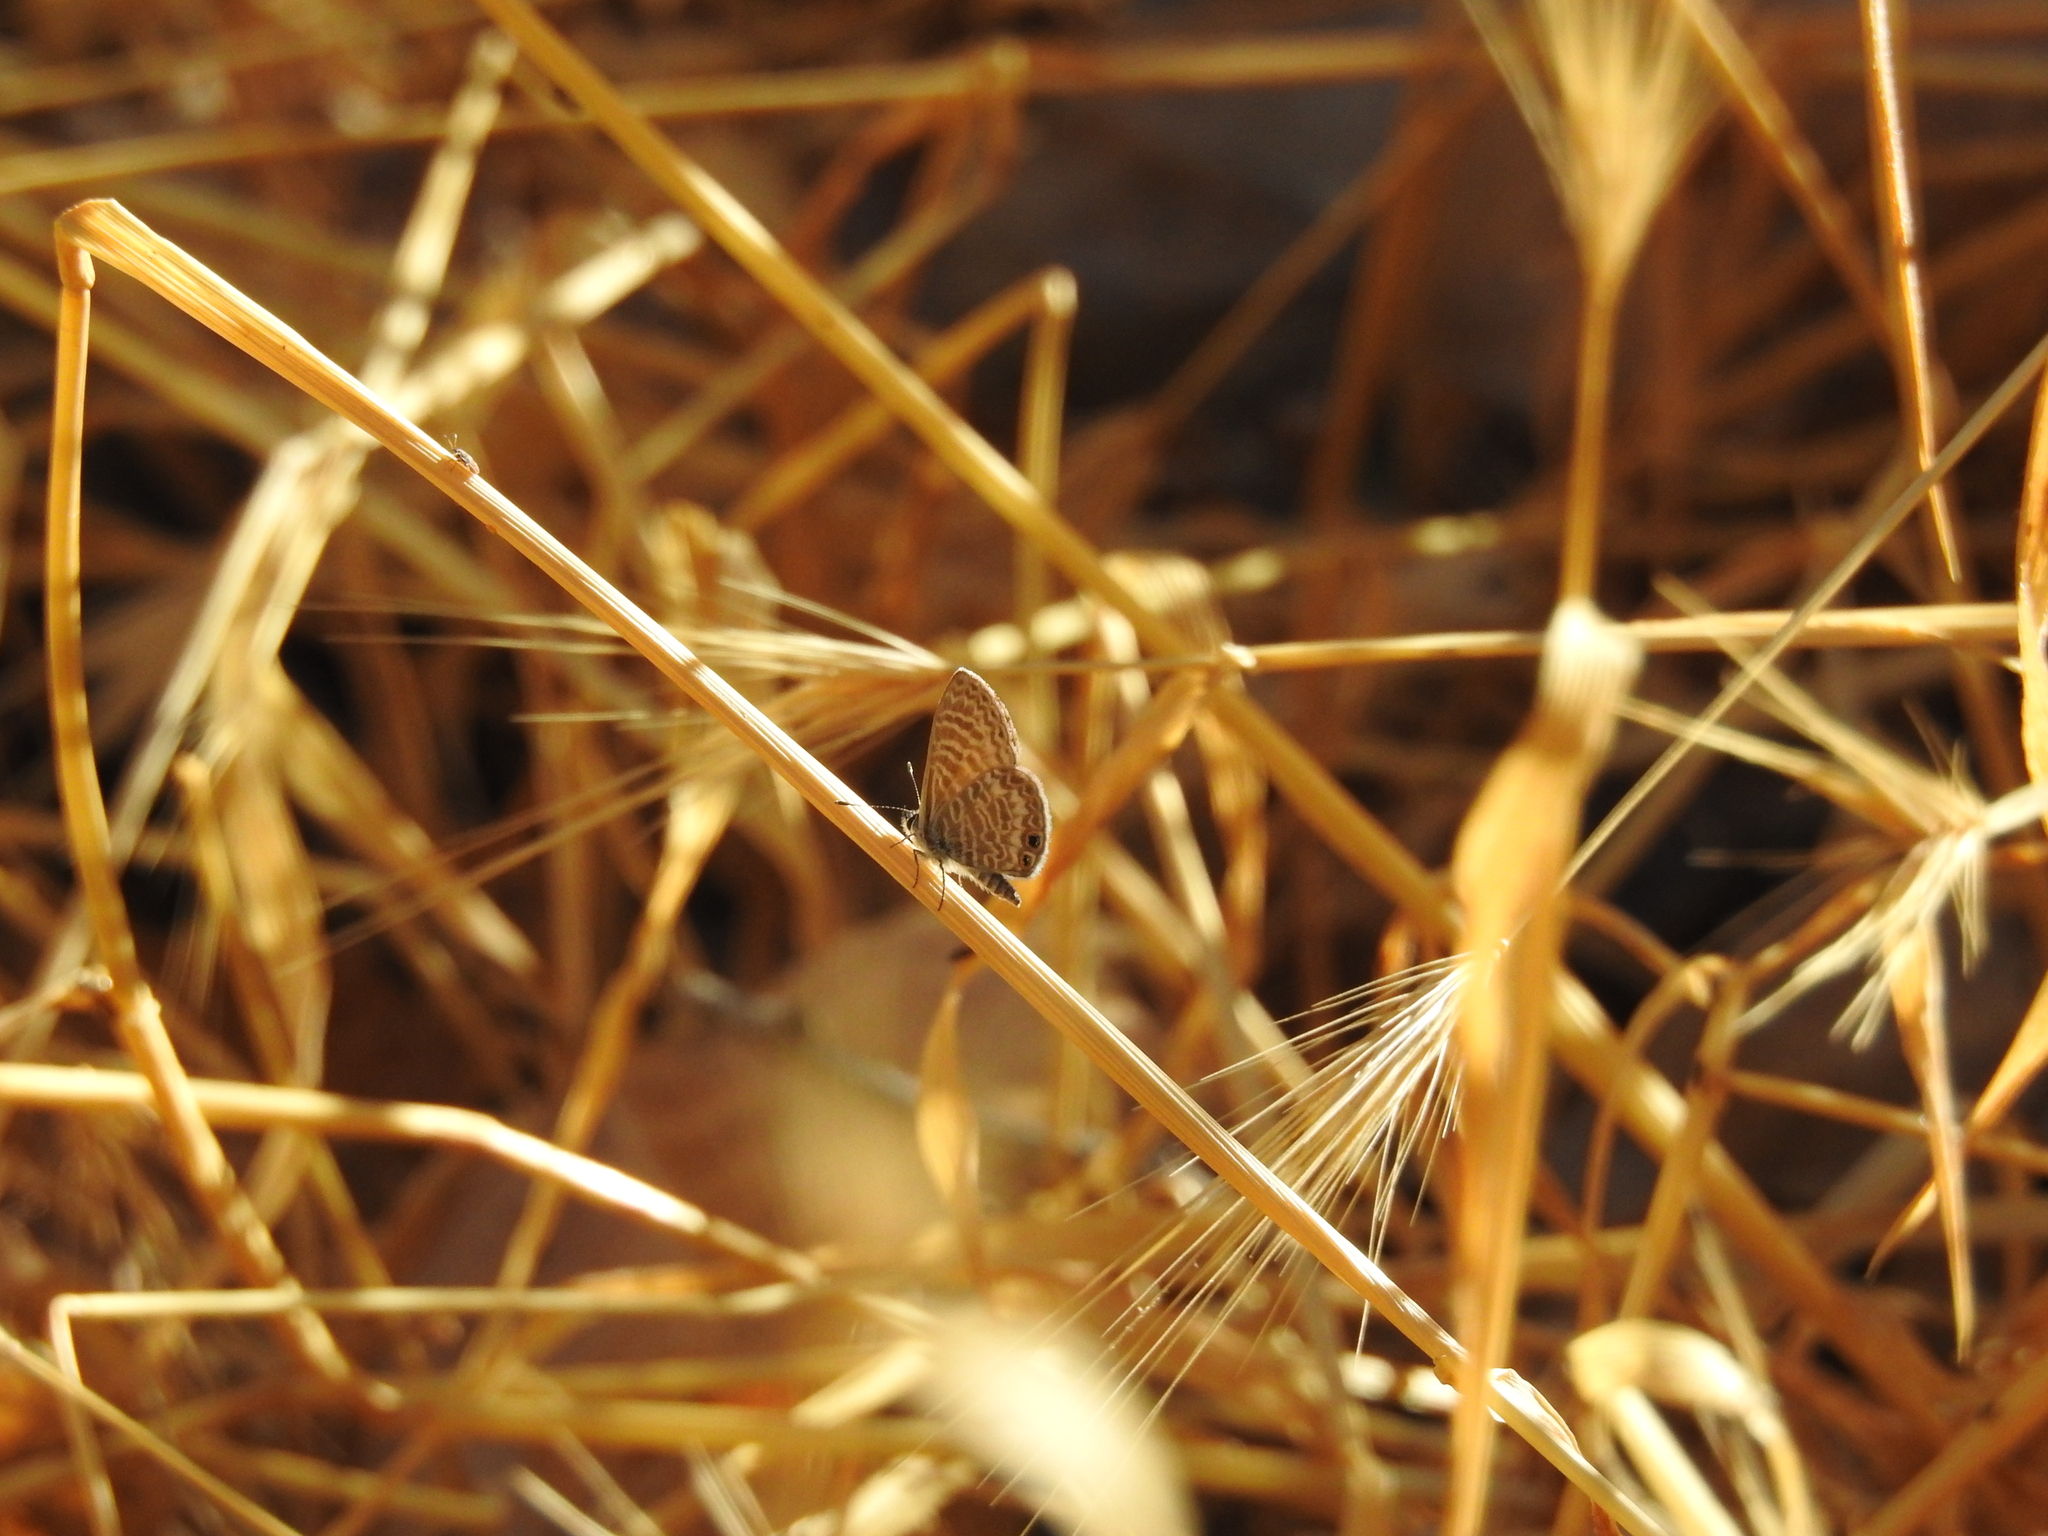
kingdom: Animalia
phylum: Arthropoda
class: Insecta
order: Lepidoptera
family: Lycaenidae
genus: Leptotes
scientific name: Leptotes marina
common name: Marine blue
